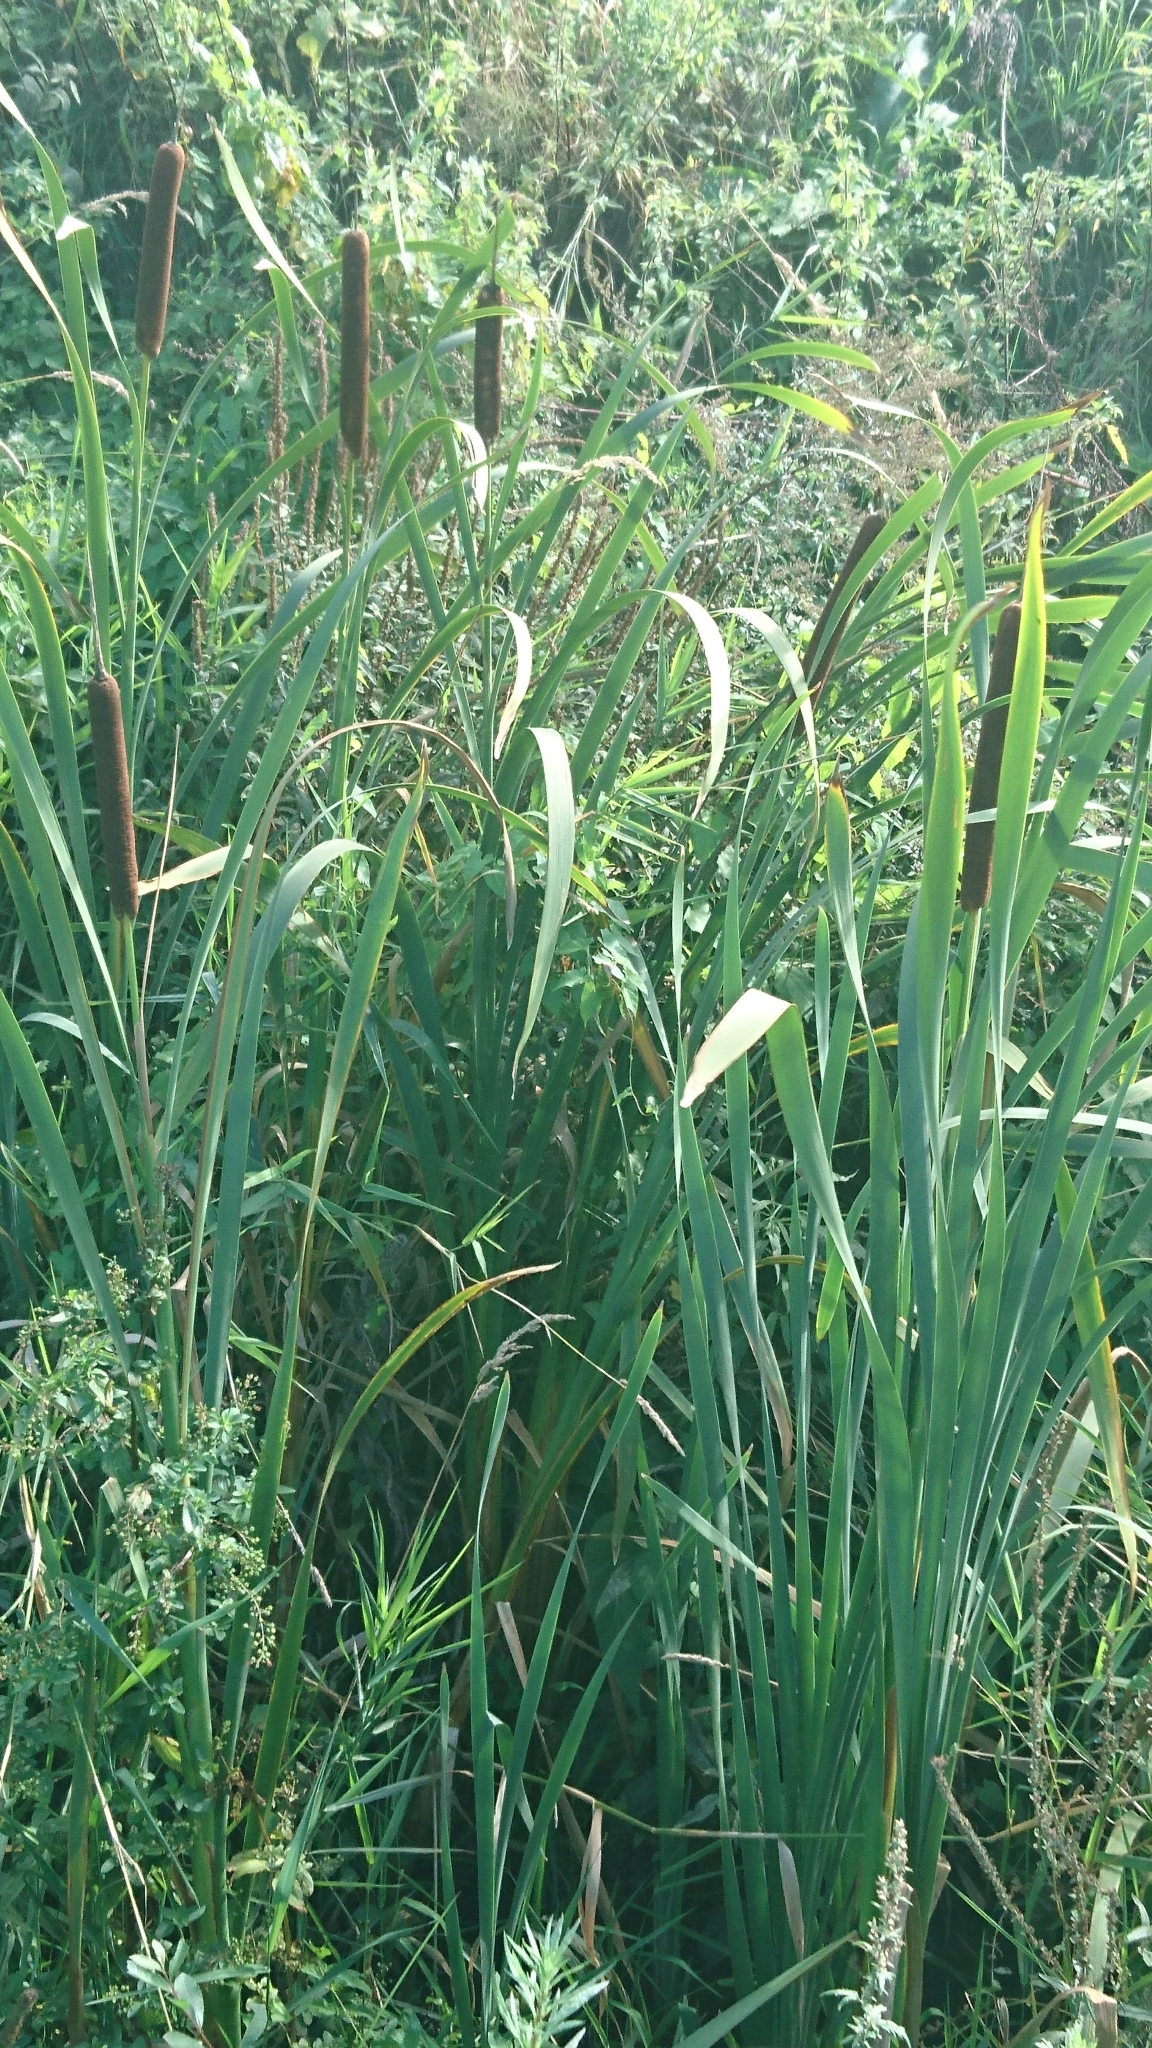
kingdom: Plantae
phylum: Tracheophyta
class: Liliopsida
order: Poales
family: Typhaceae
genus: Typha
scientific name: Typha latifolia
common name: Broadleaf cattail
